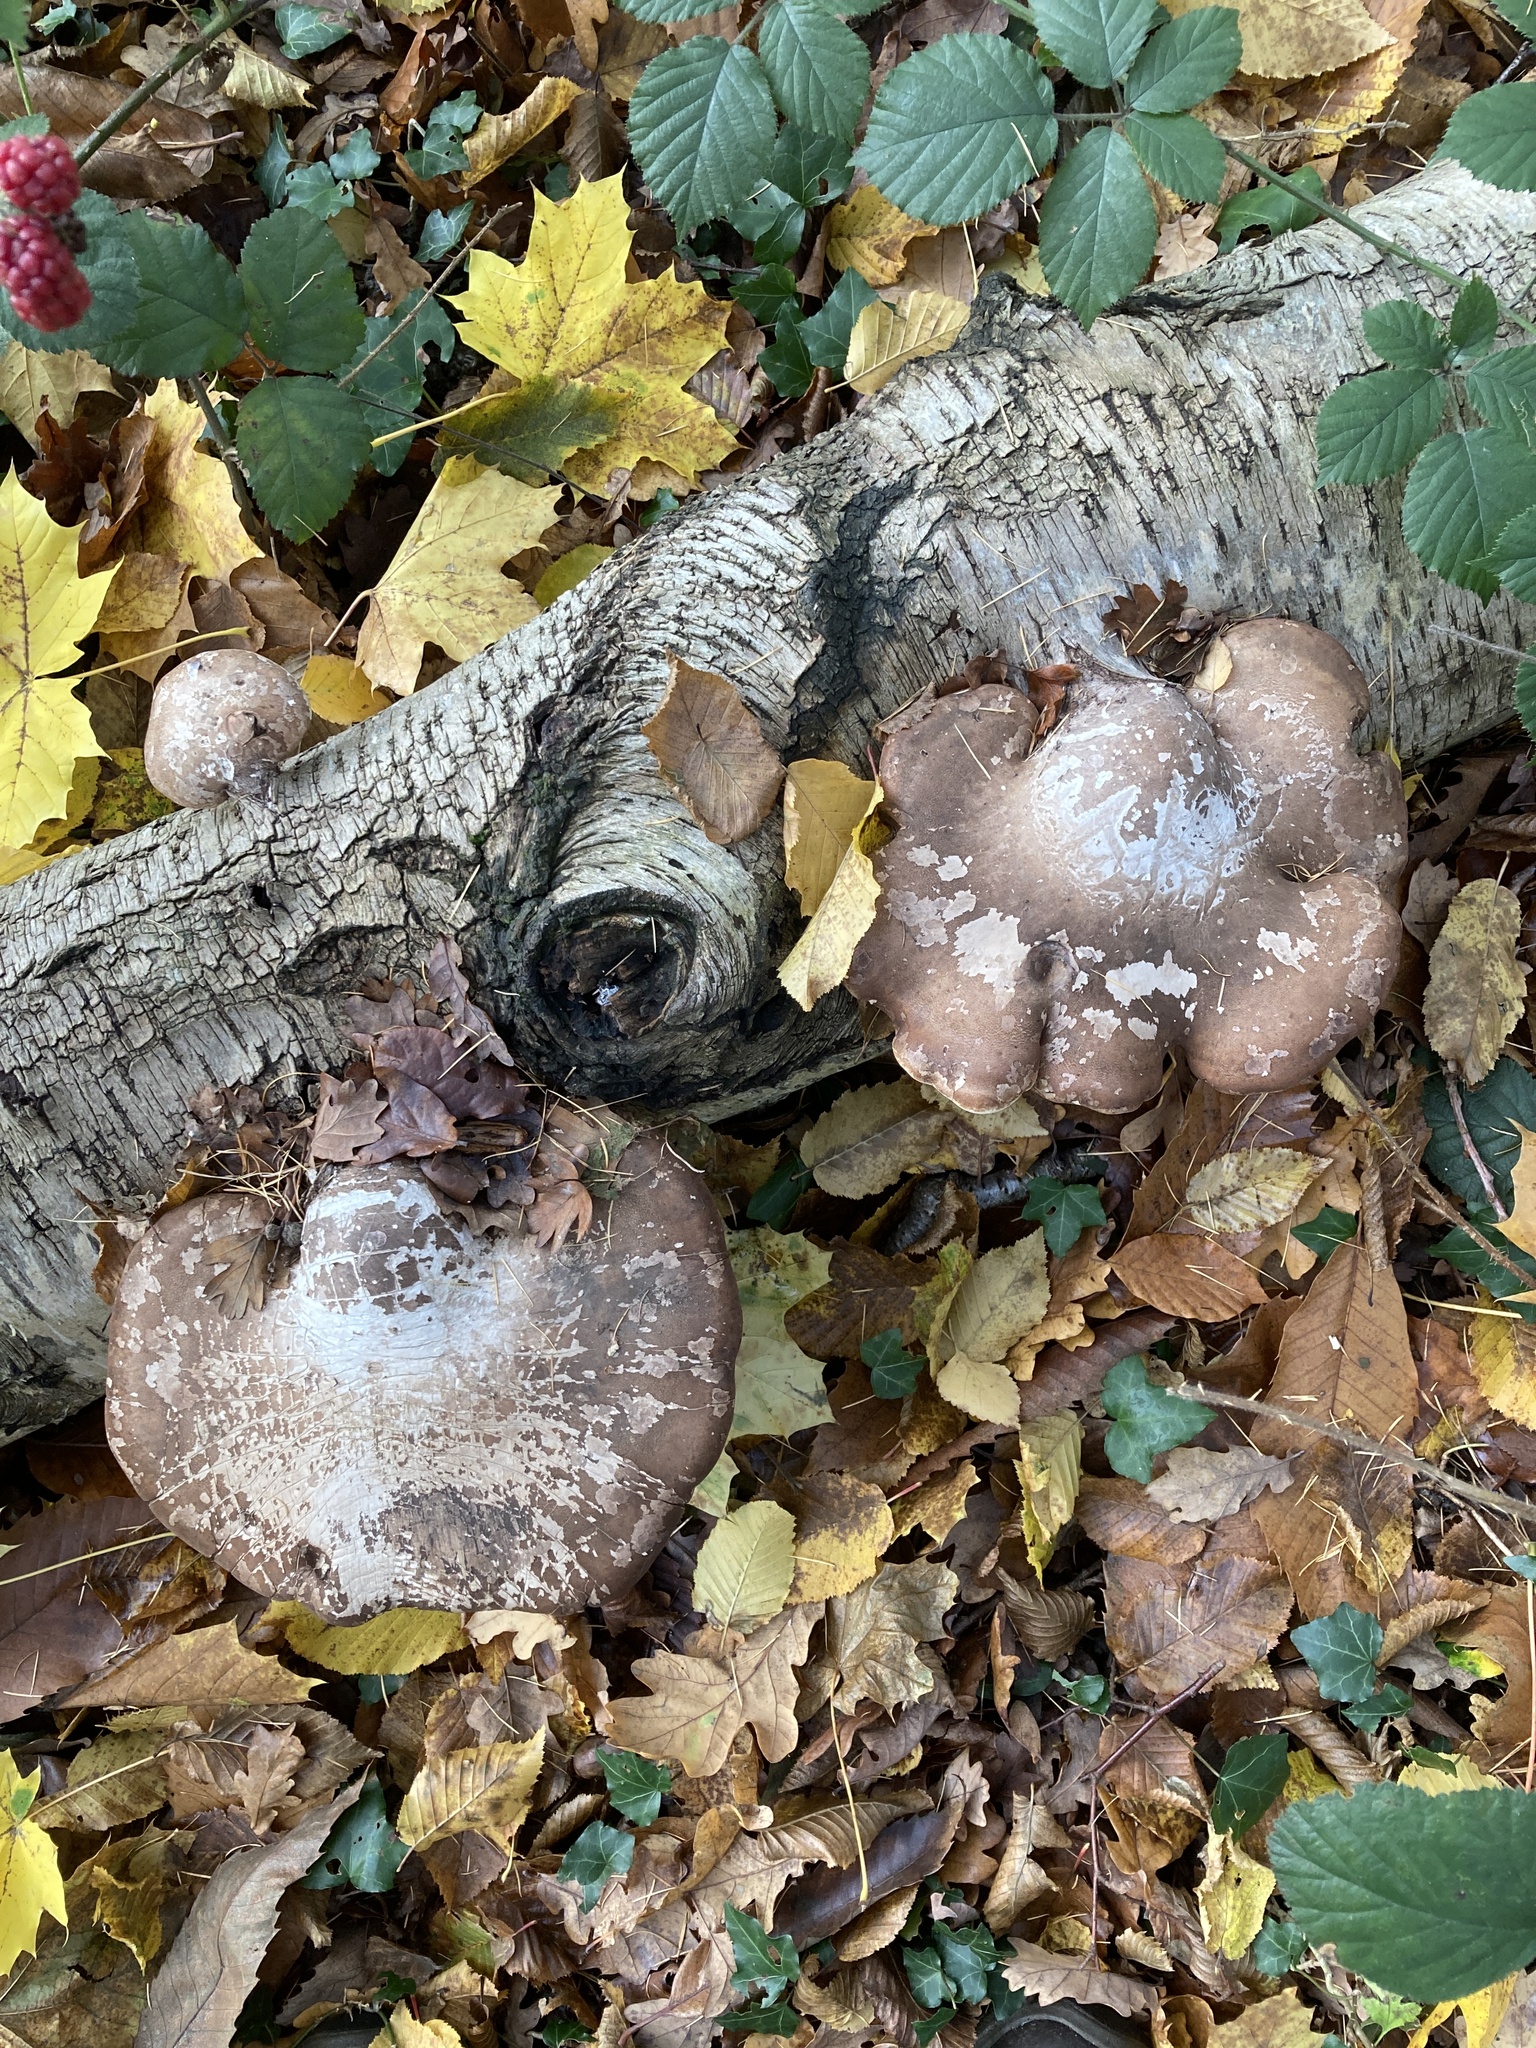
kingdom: Fungi
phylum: Basidiomycota
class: Agaricomycetes
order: Polyporales
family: Fomitopsidaceae
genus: Fomitopsis
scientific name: Fomitopsis betulina
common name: Birch polypore
